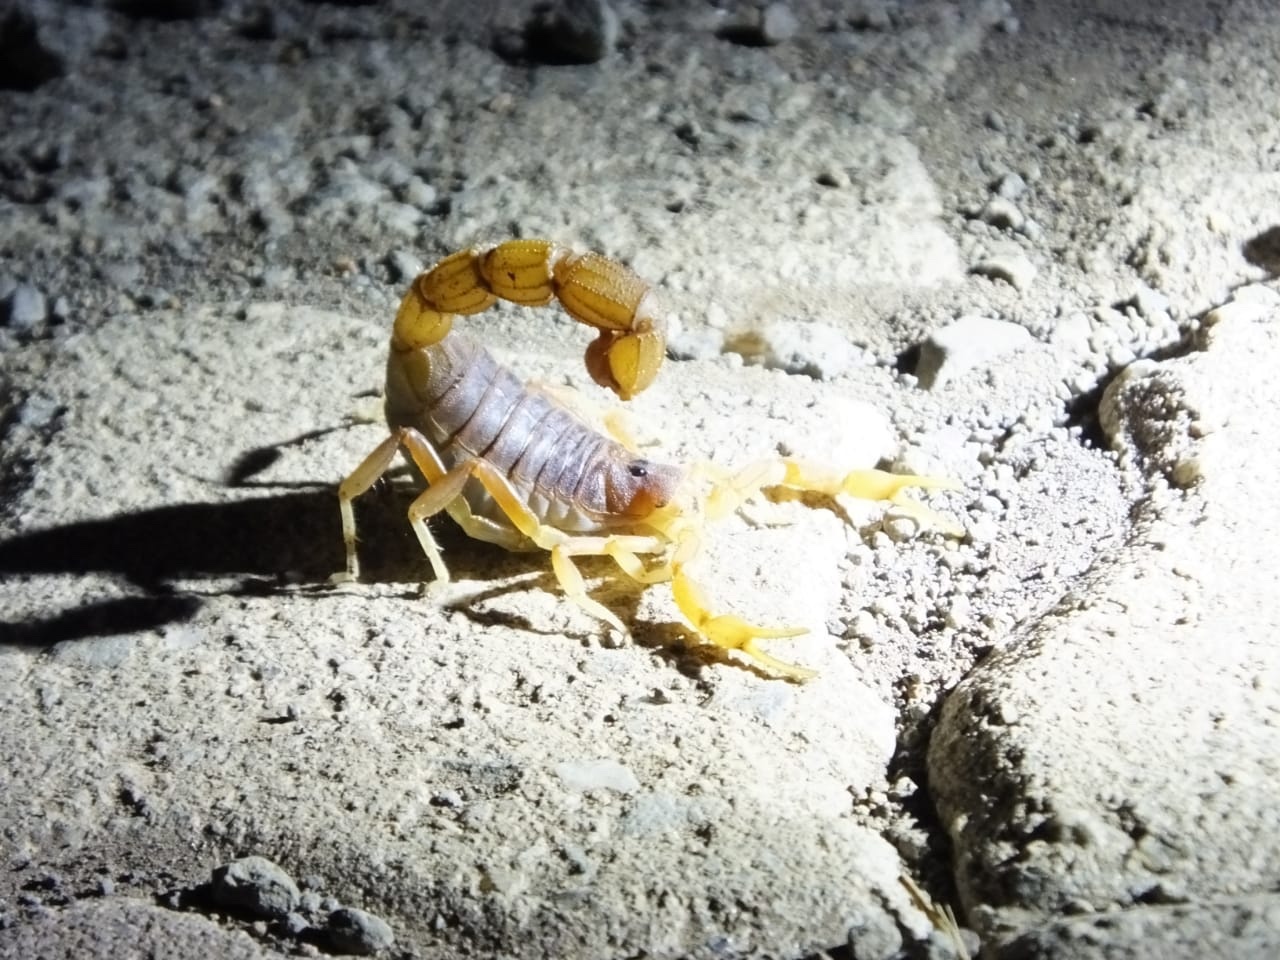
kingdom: Animalia
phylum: Arthropoda
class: Arachnida
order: Scorpiones
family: Buthidae
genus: Parabuthus
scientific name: Parabuthus mossambicensis
